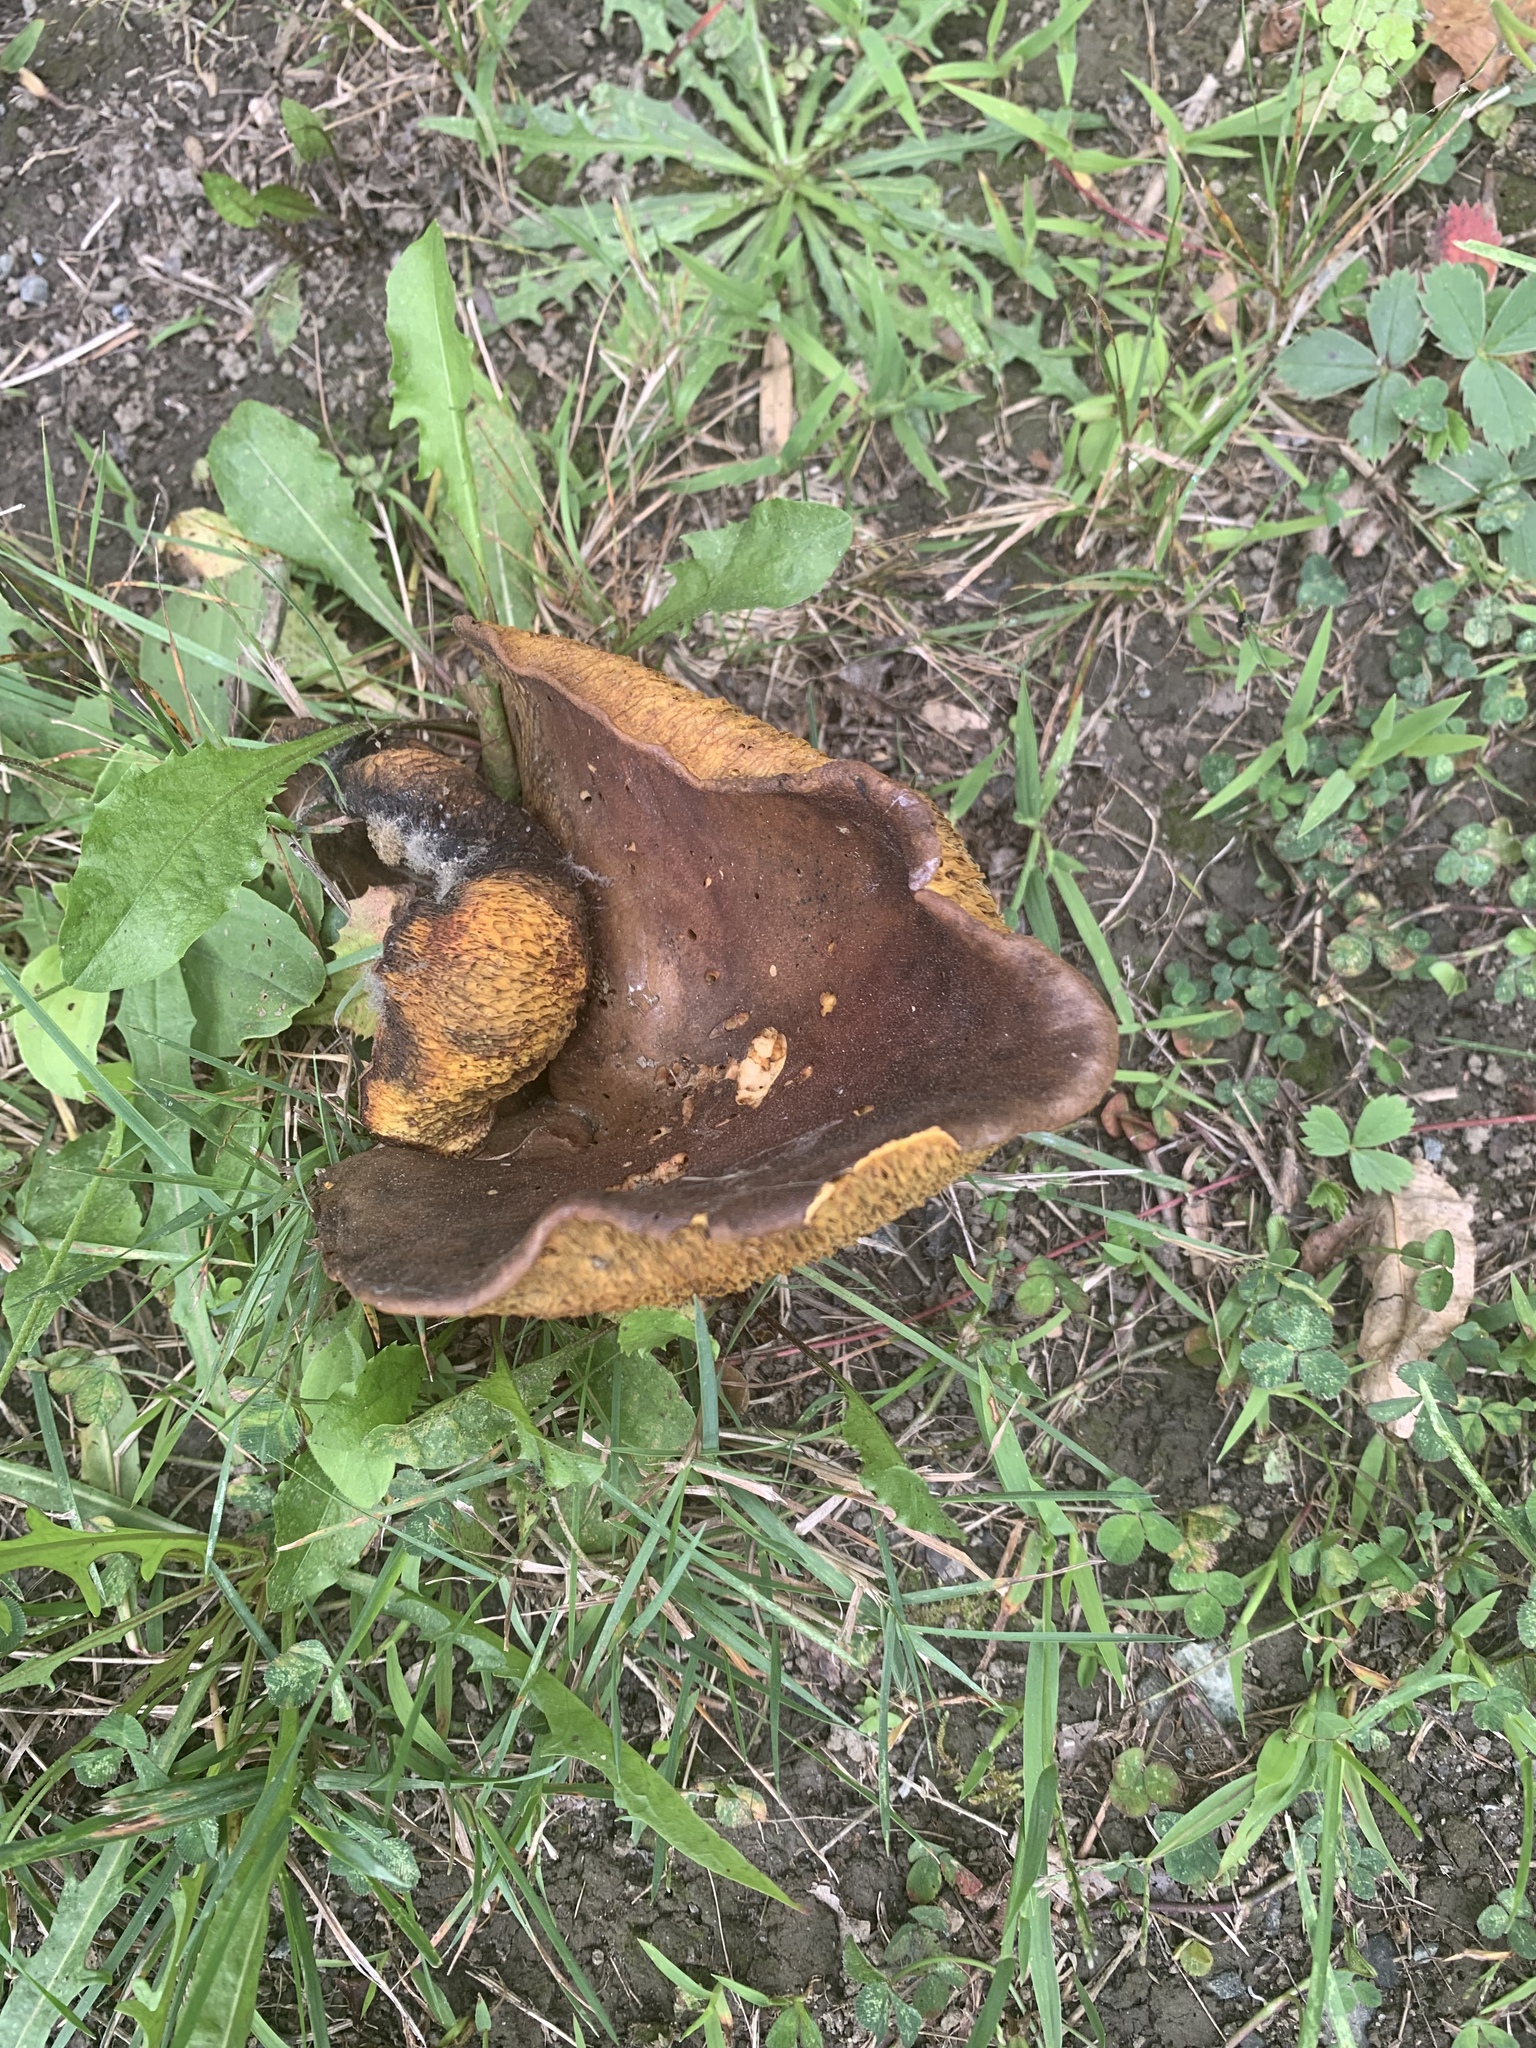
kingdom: Fungi
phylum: Basidiomycota
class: Agaricomycetes
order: Boletales
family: Boletinellaceae
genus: Boletinellus
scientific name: Boletinellus merulioides
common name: Ash tree bolete
